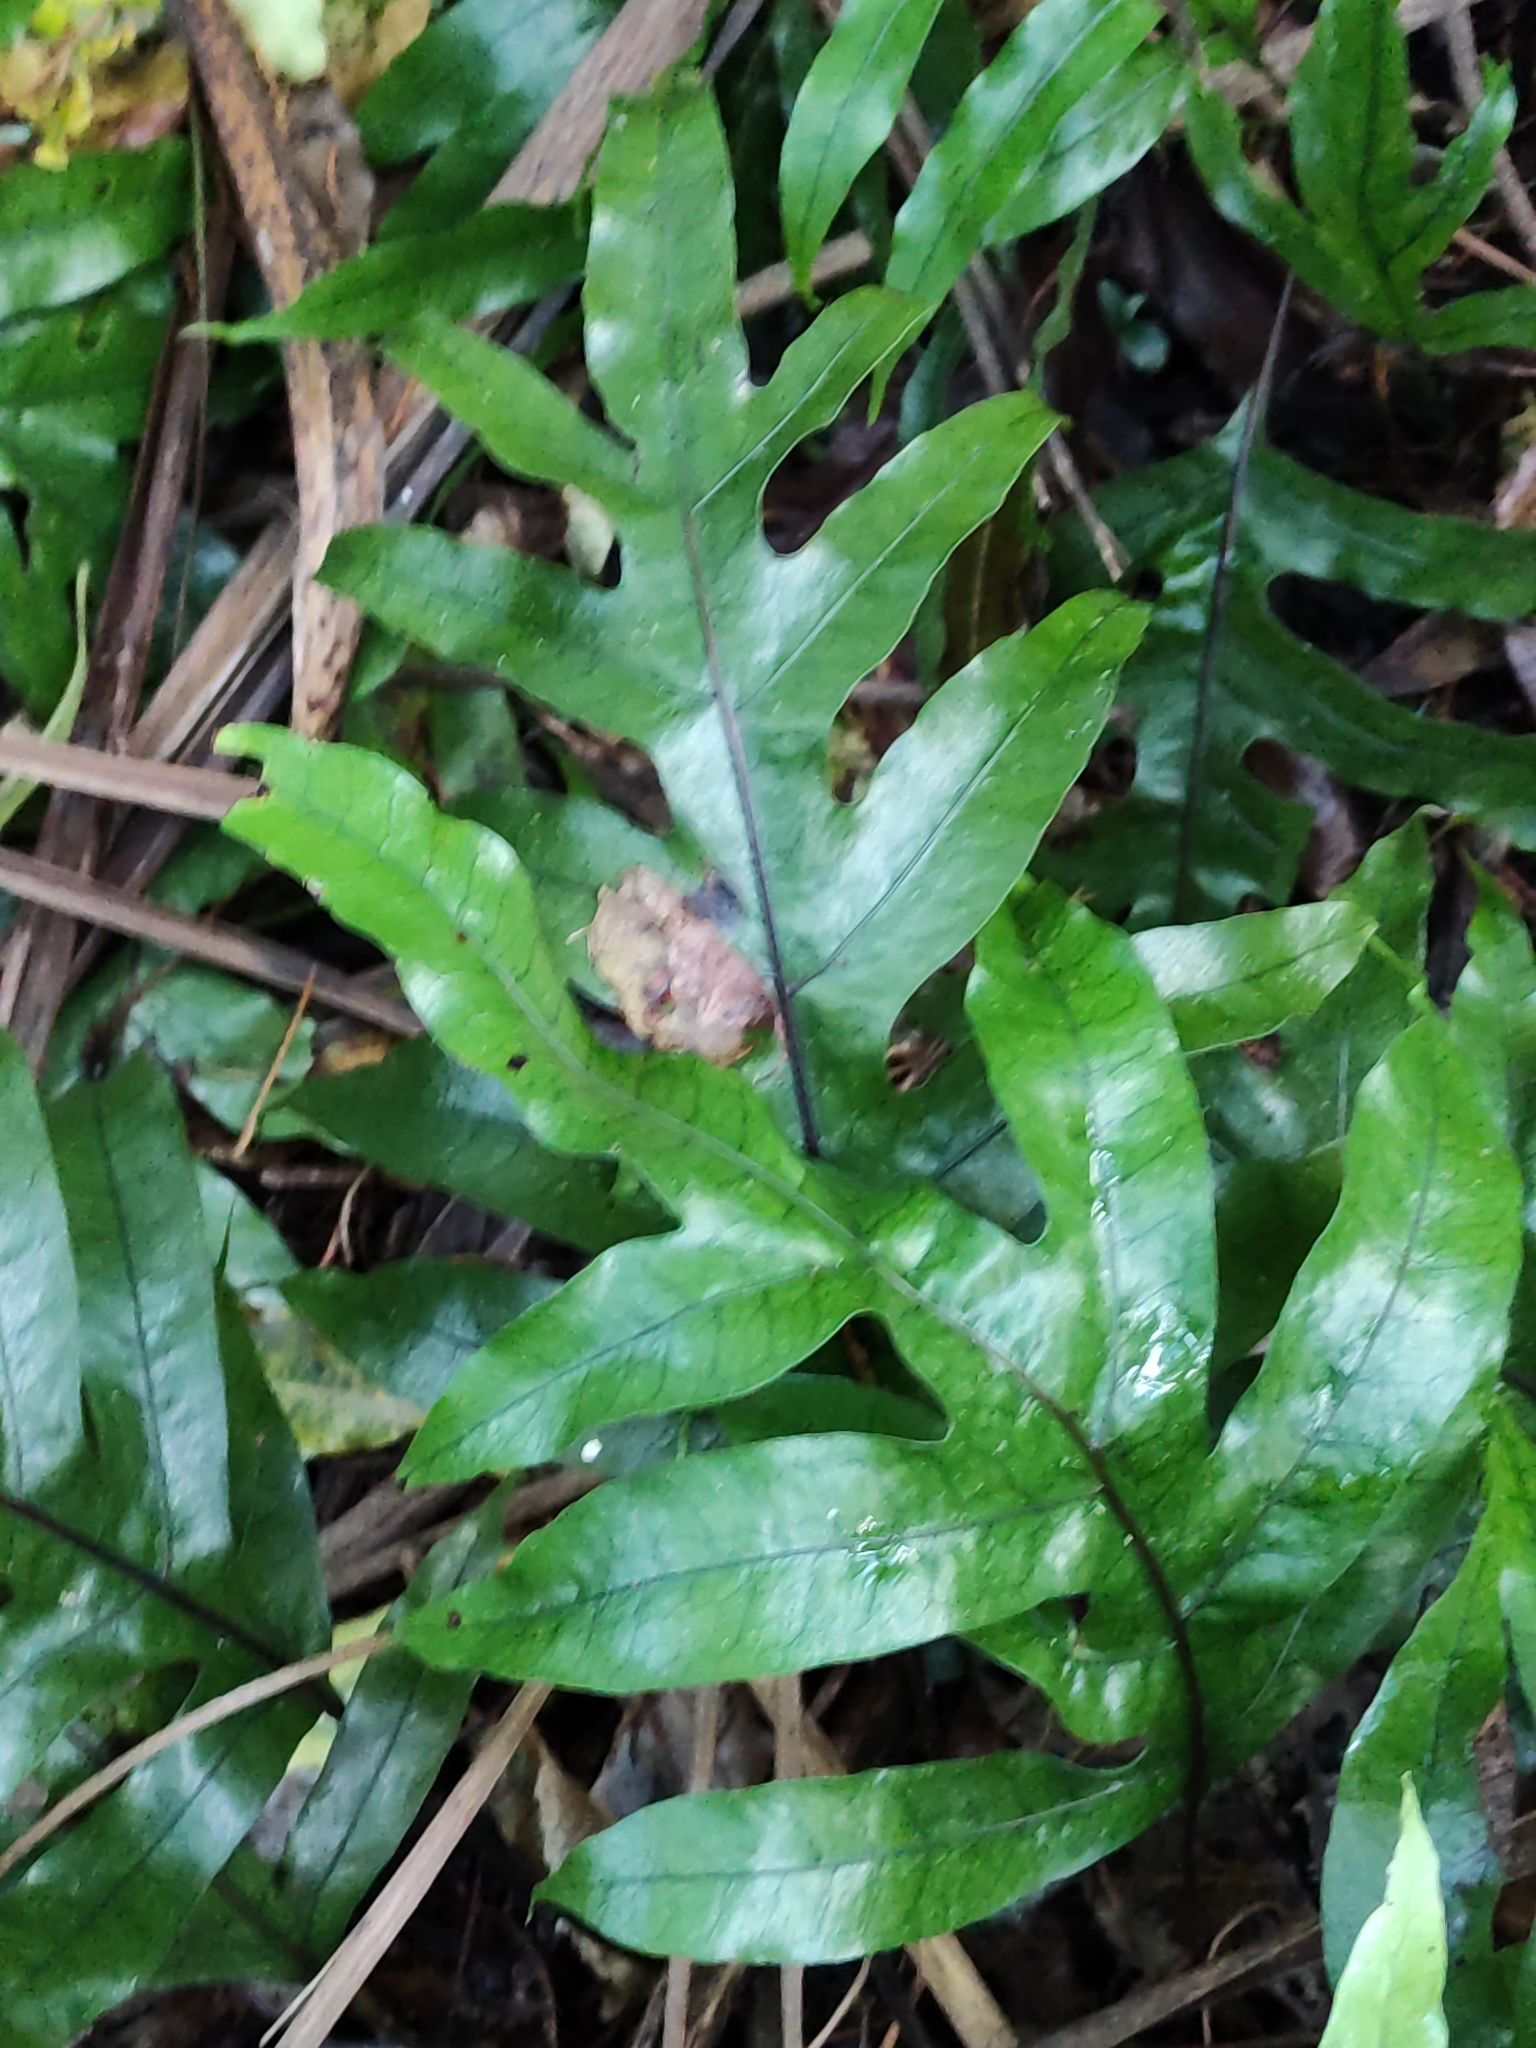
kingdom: Plantae
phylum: Tracheophyta
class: Polypodiopsida
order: Polypodiales
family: Polypodiaceae
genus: Lecanopteris
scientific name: Lecanopteris pustulata
